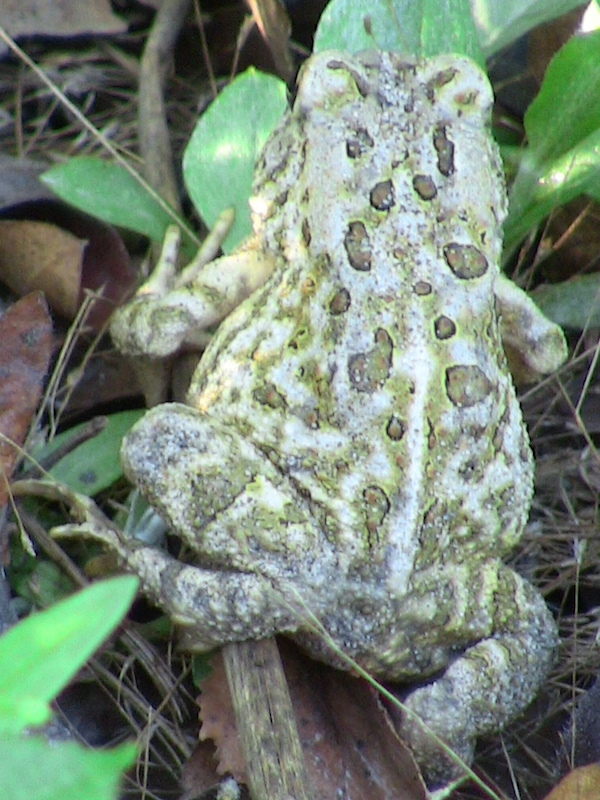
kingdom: Animalia
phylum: Chordata
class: Amphibia
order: Anura
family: Bufonidae
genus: Anaxyrus
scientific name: Anaxyrus fowleri
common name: Fowler's toad
